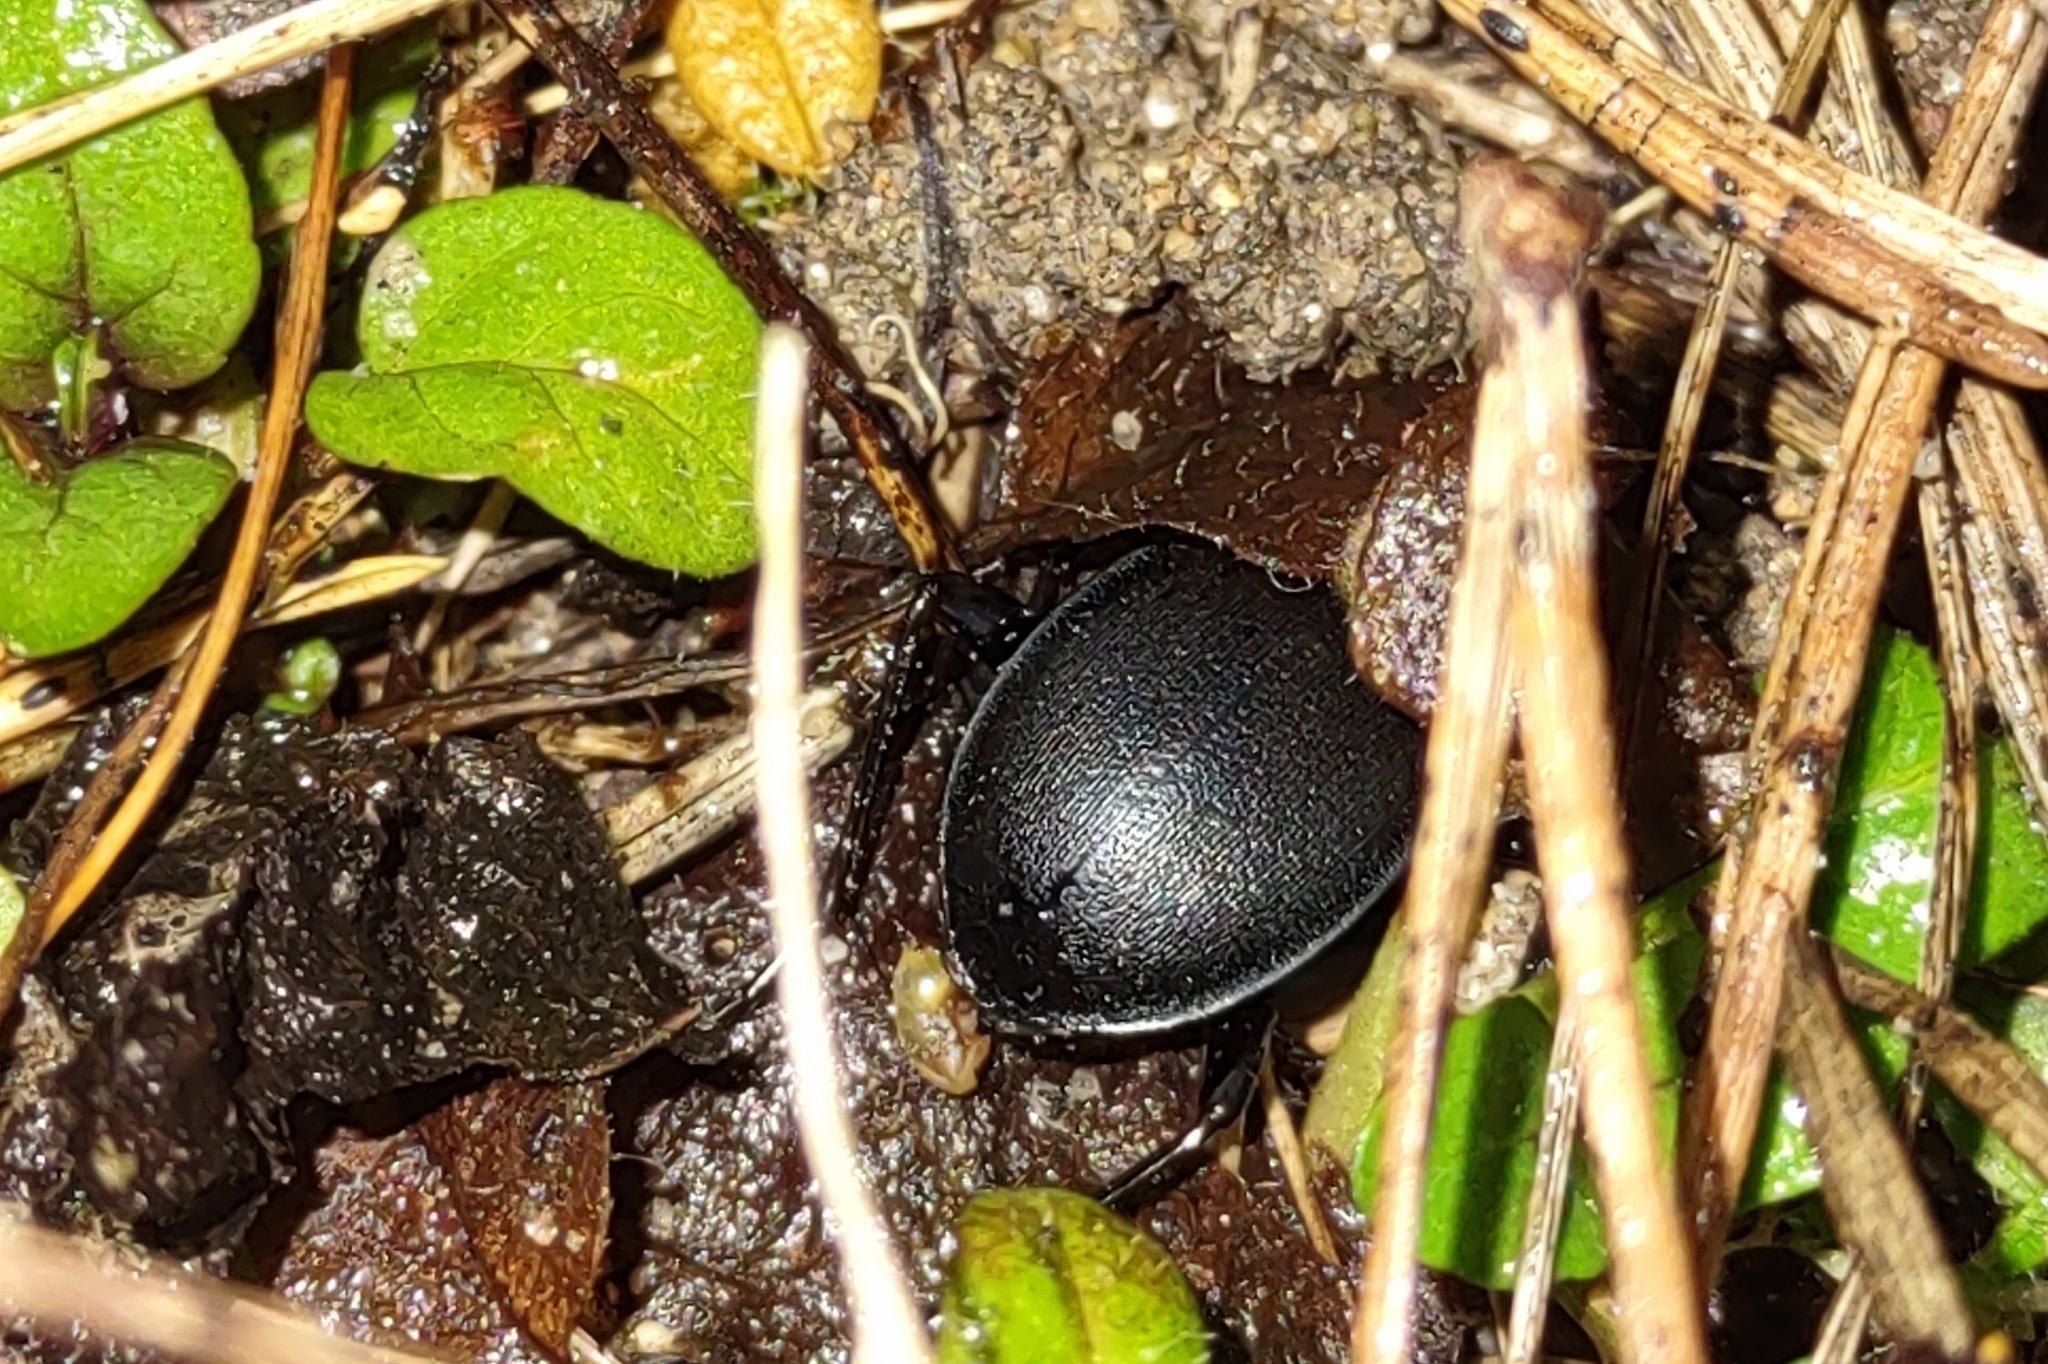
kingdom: Animalia
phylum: Arthropoda
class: Insecta
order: Coleoptera
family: Carabidae
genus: Carabus
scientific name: Carabus convexus
